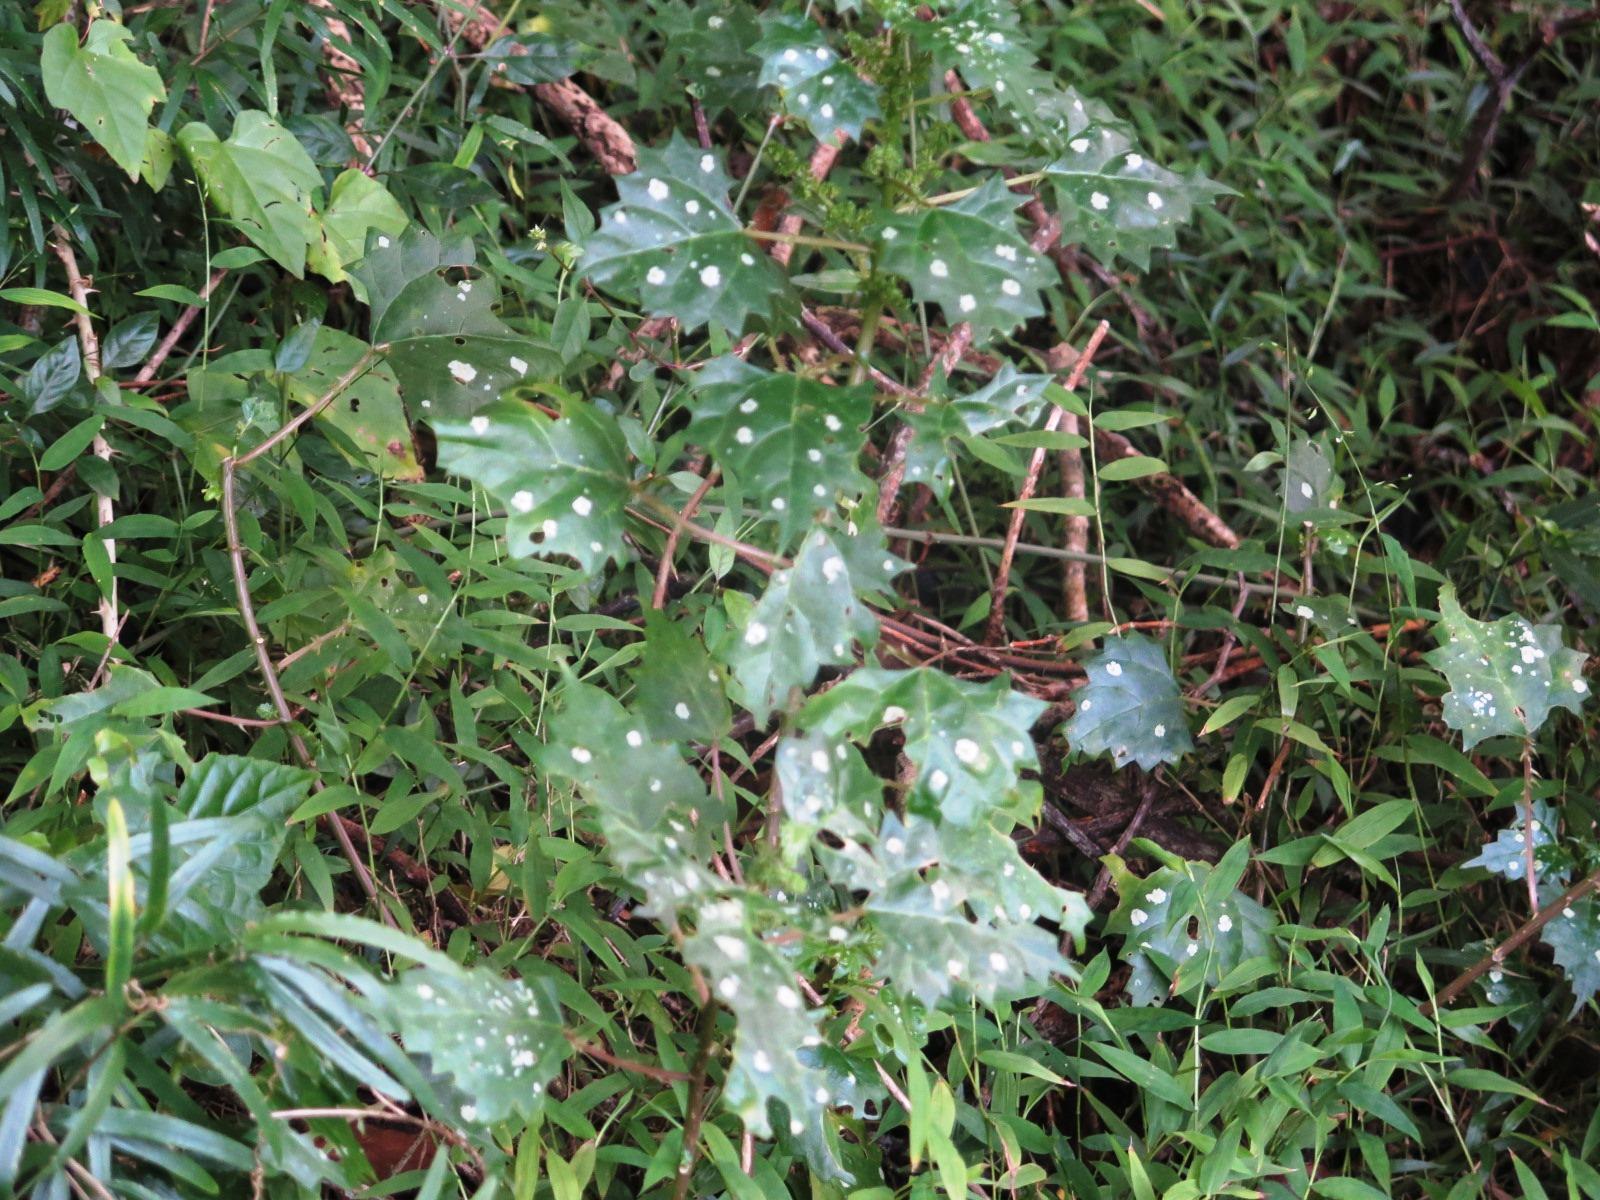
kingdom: Plantae
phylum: Tracheophyta
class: Magnoliopsida
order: Rosales
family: Urticaceae
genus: Laportea
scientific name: Laportea grossa
